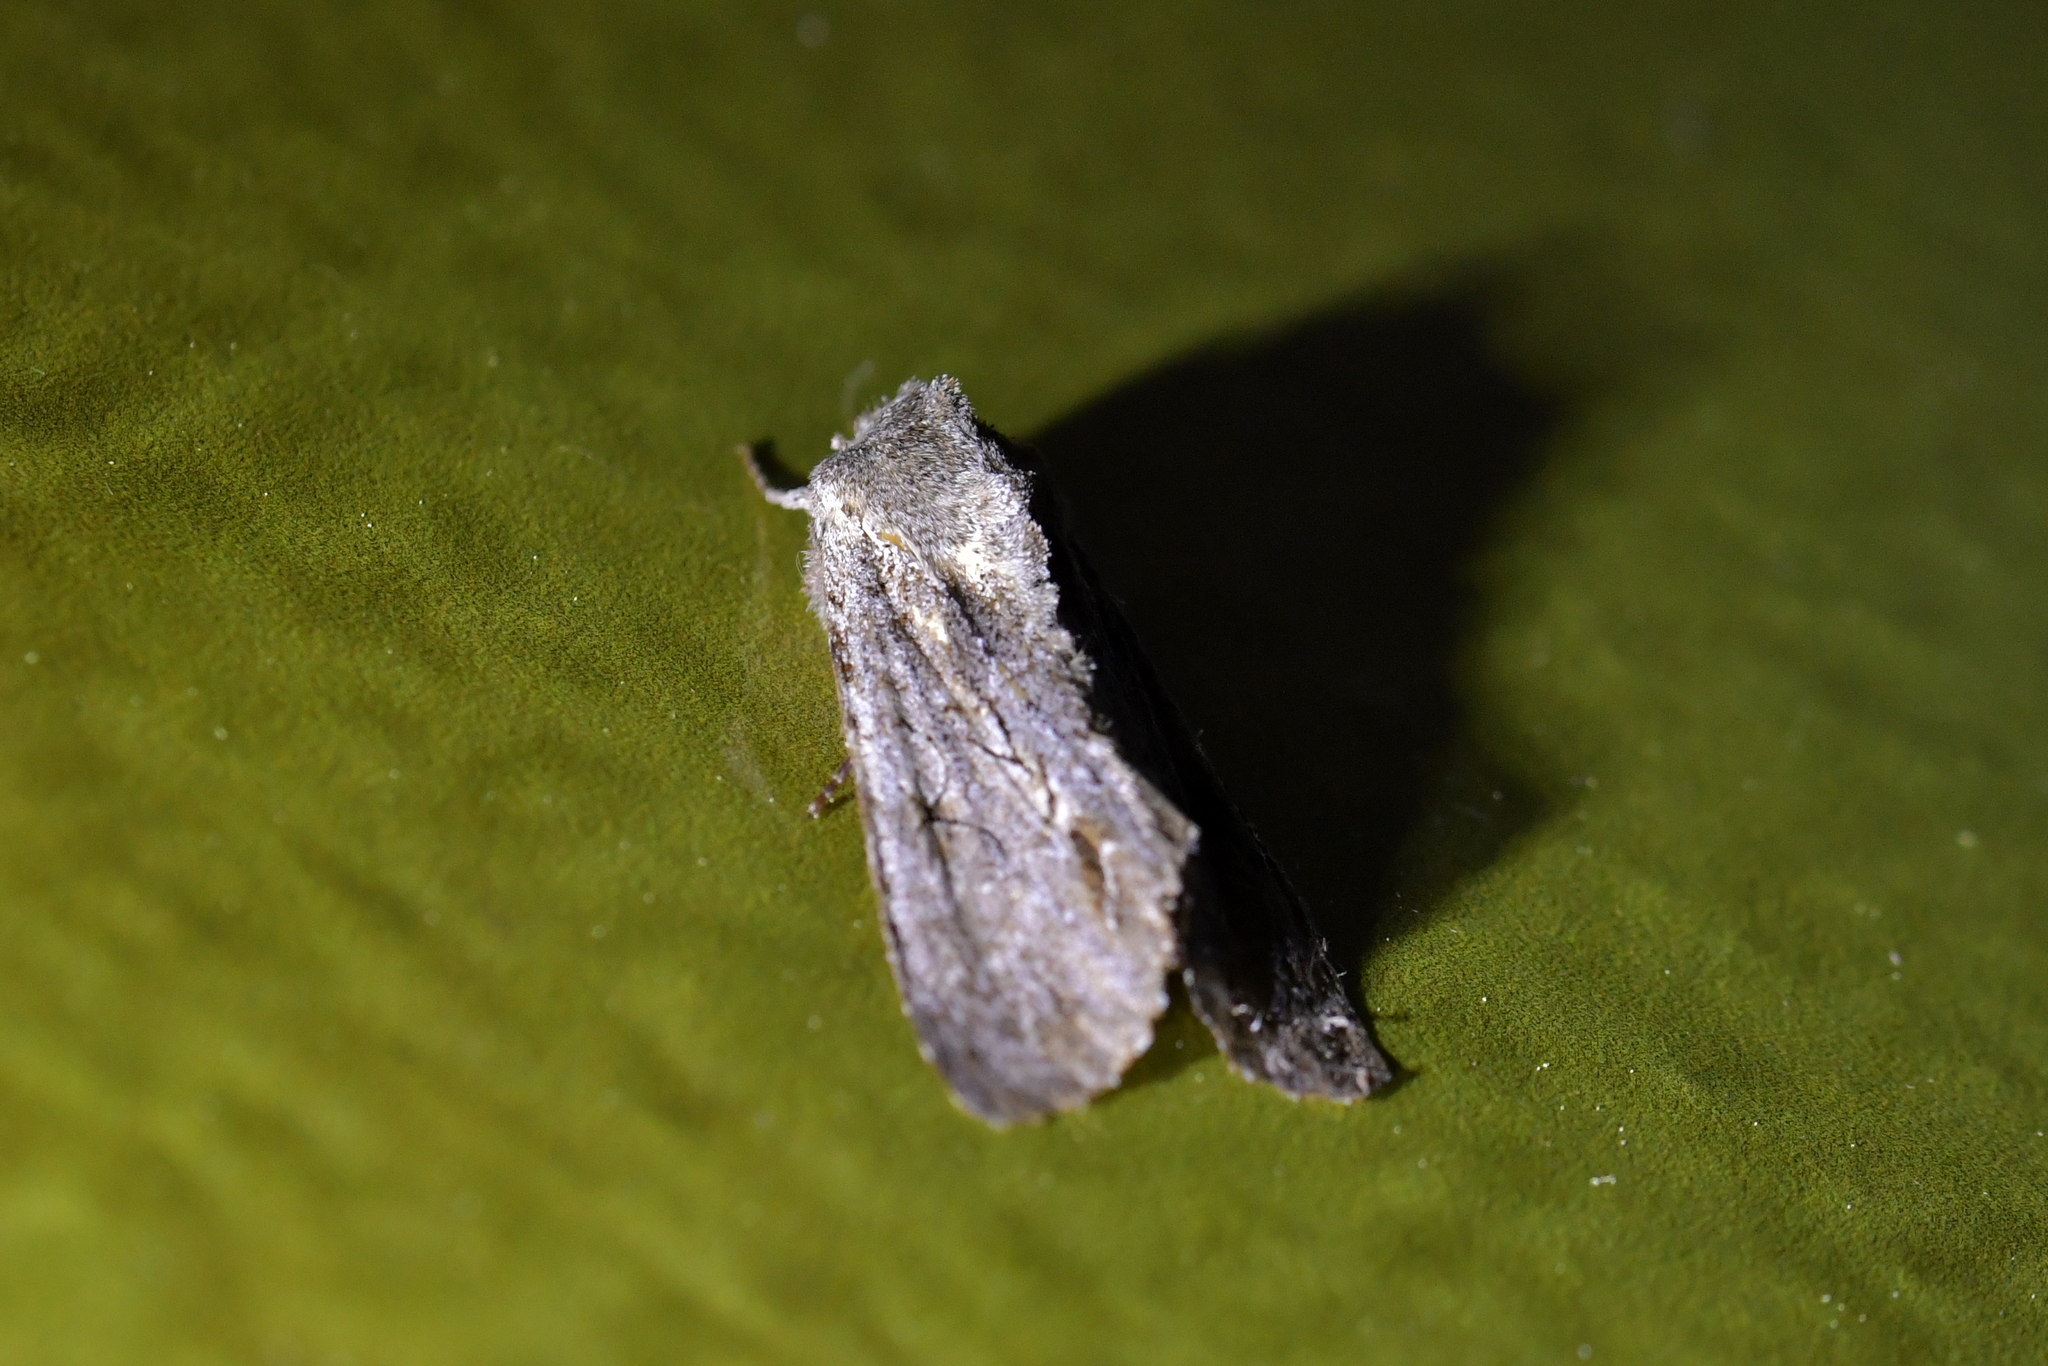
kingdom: Animalia
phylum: Arthropoda
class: Insecta
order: Lepidoptera
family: Noctuidae
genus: Ichneutica
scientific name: Ichneutica
